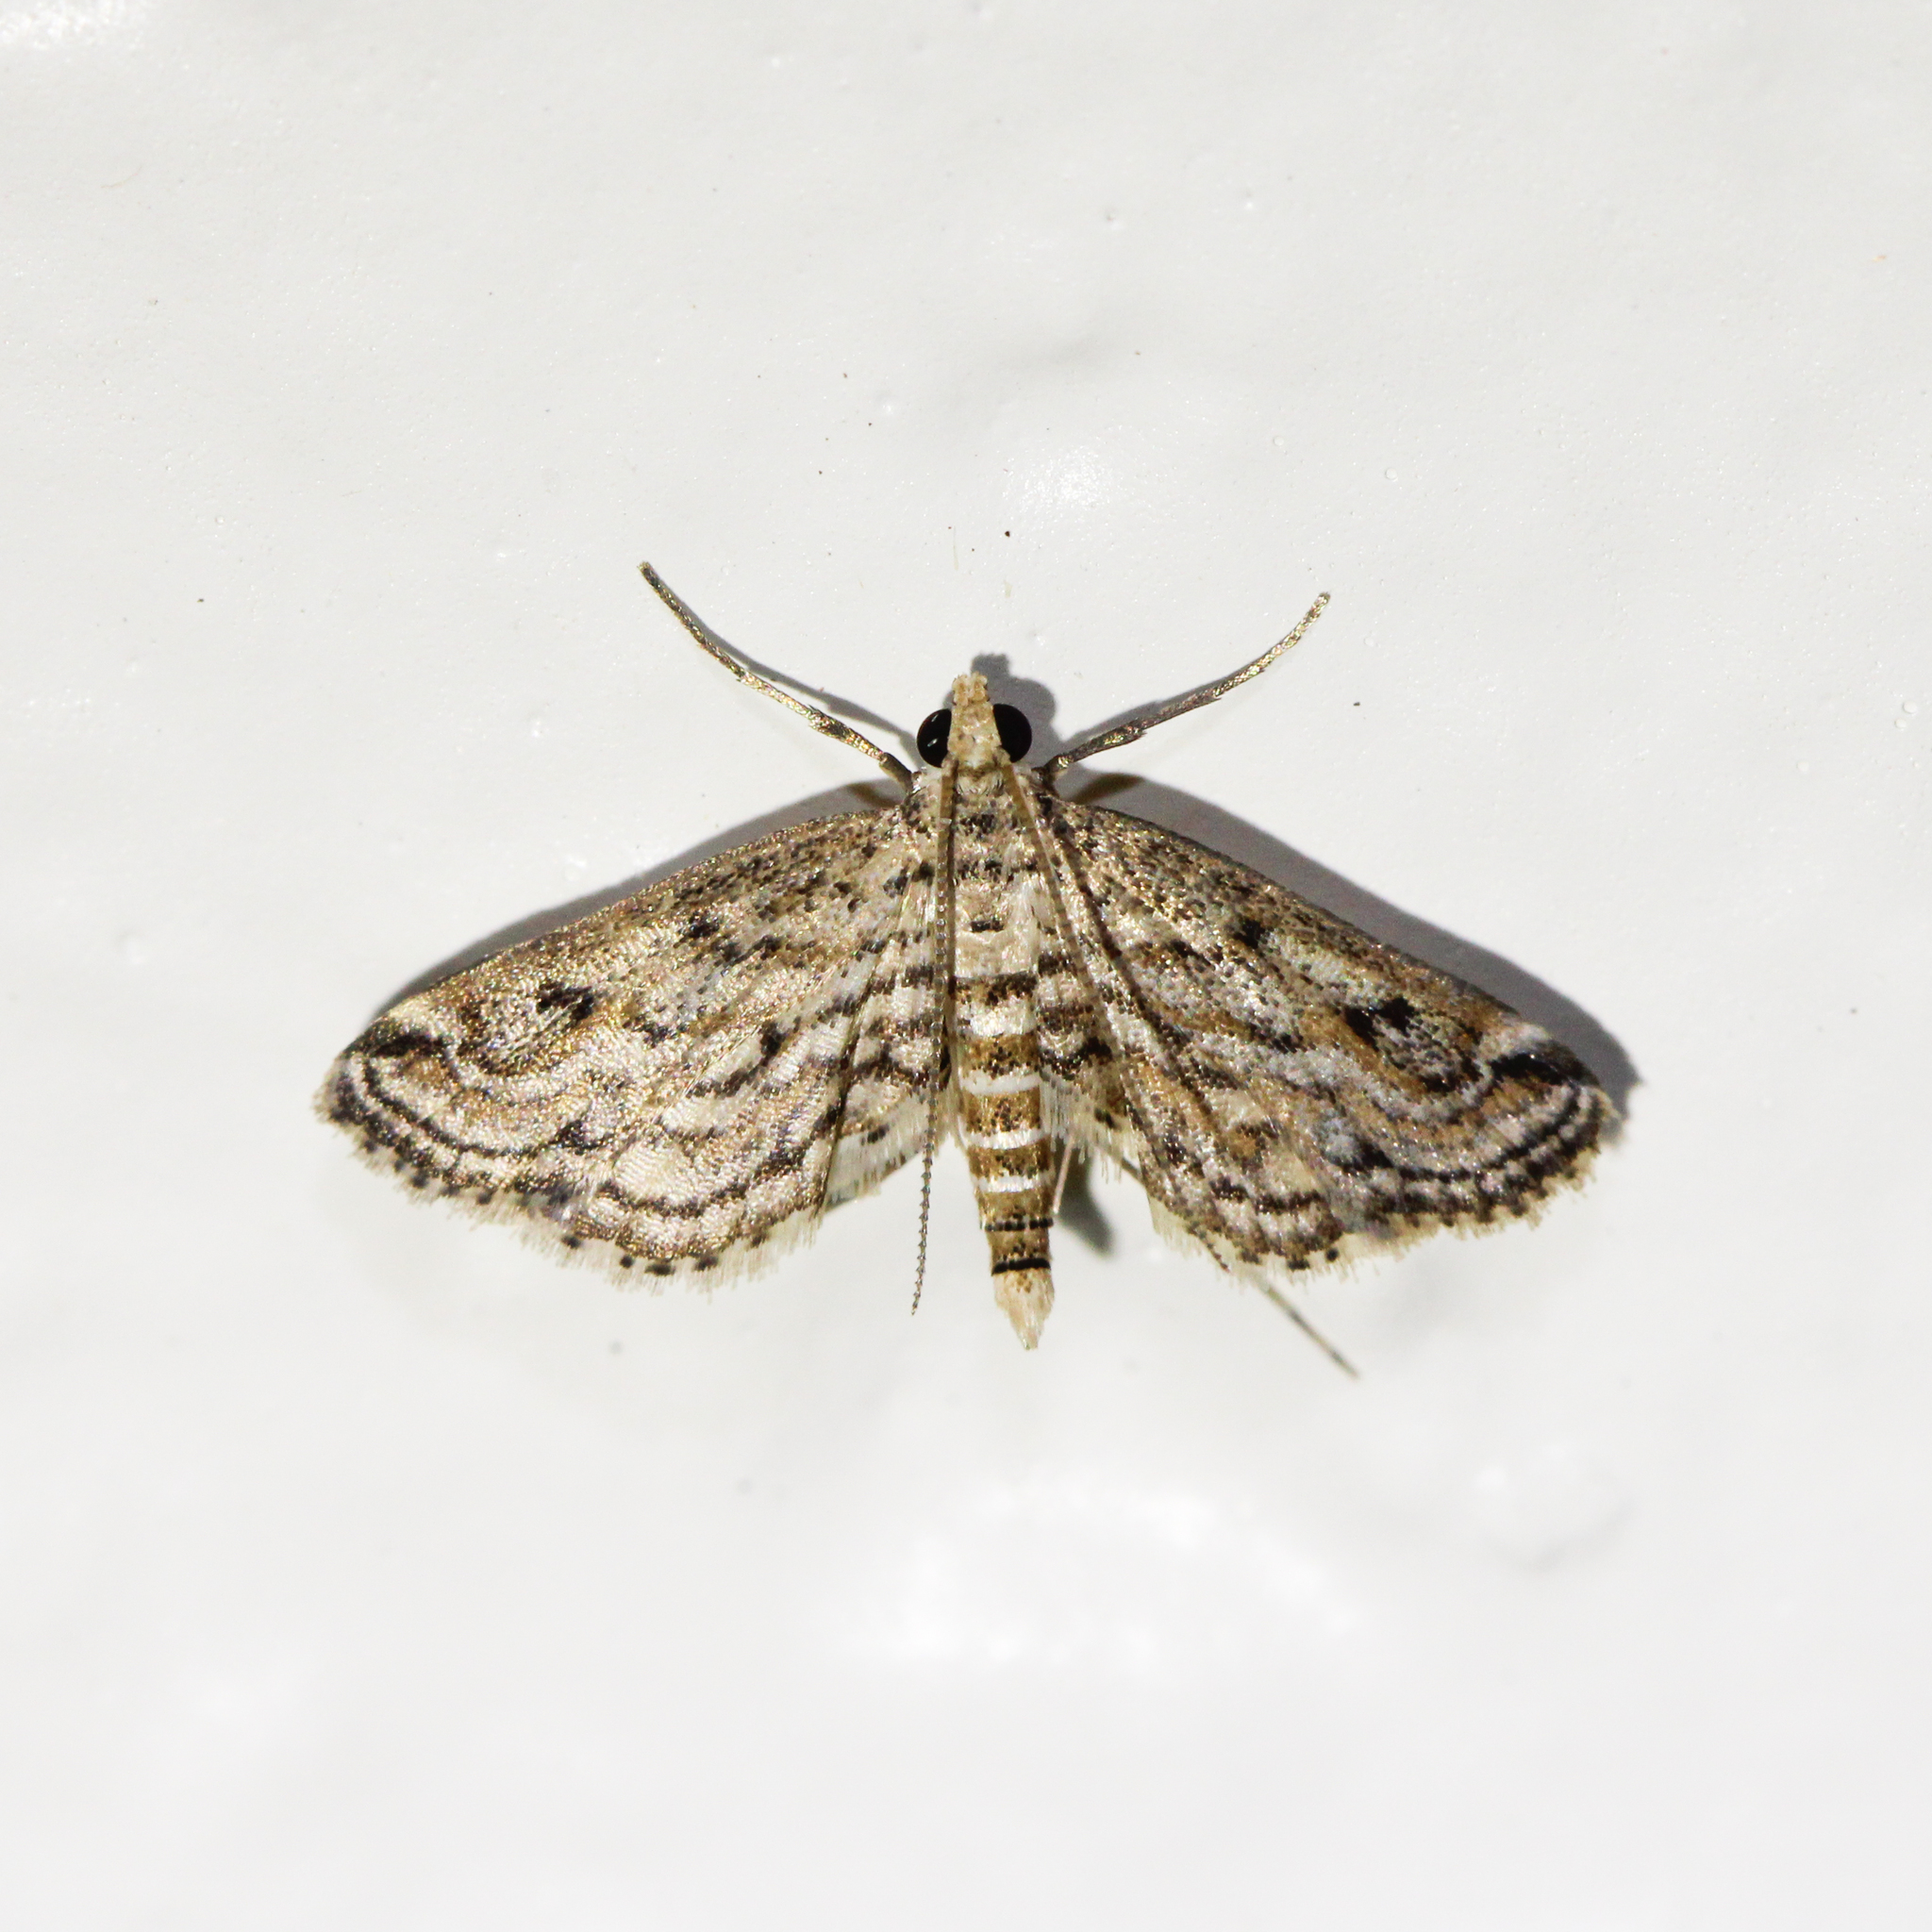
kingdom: Animalia
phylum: Arthropoda
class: Insecta
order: Lepidoptera
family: Crambidae
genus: Parapoynx
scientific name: Parapoynx allionealis
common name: Bladderwort casemaker
